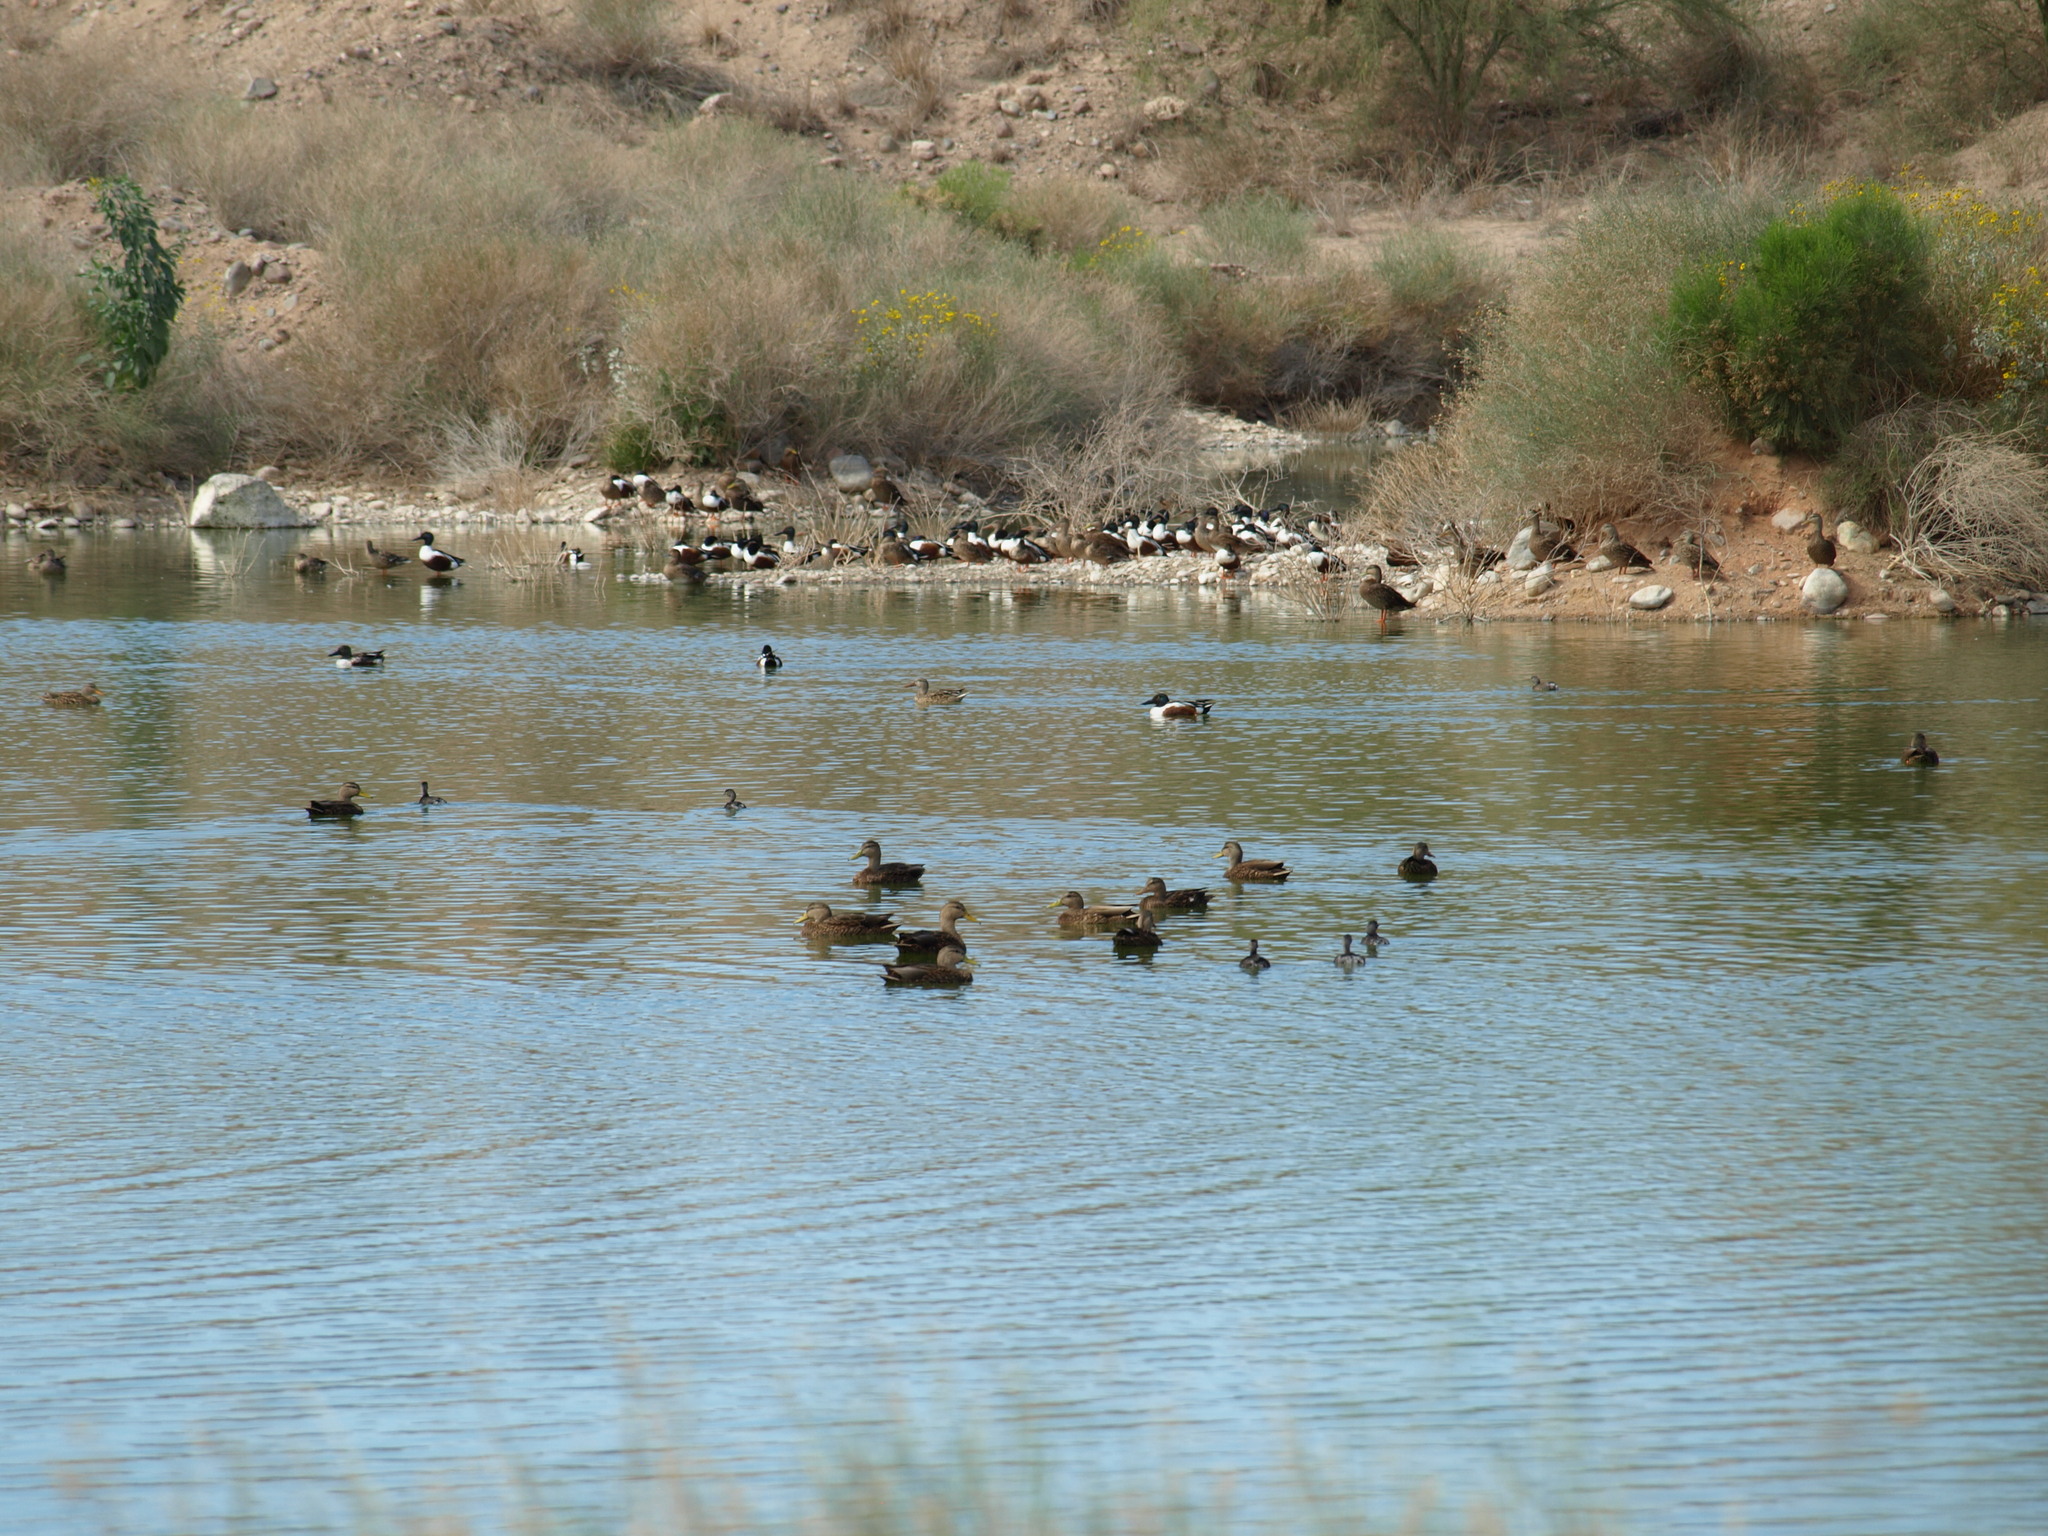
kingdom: Animalia
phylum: Chordata
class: Aves
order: Anseriformes
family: Anatidae
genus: Spatula
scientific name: Spatula clypeata
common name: Northern shoveler
